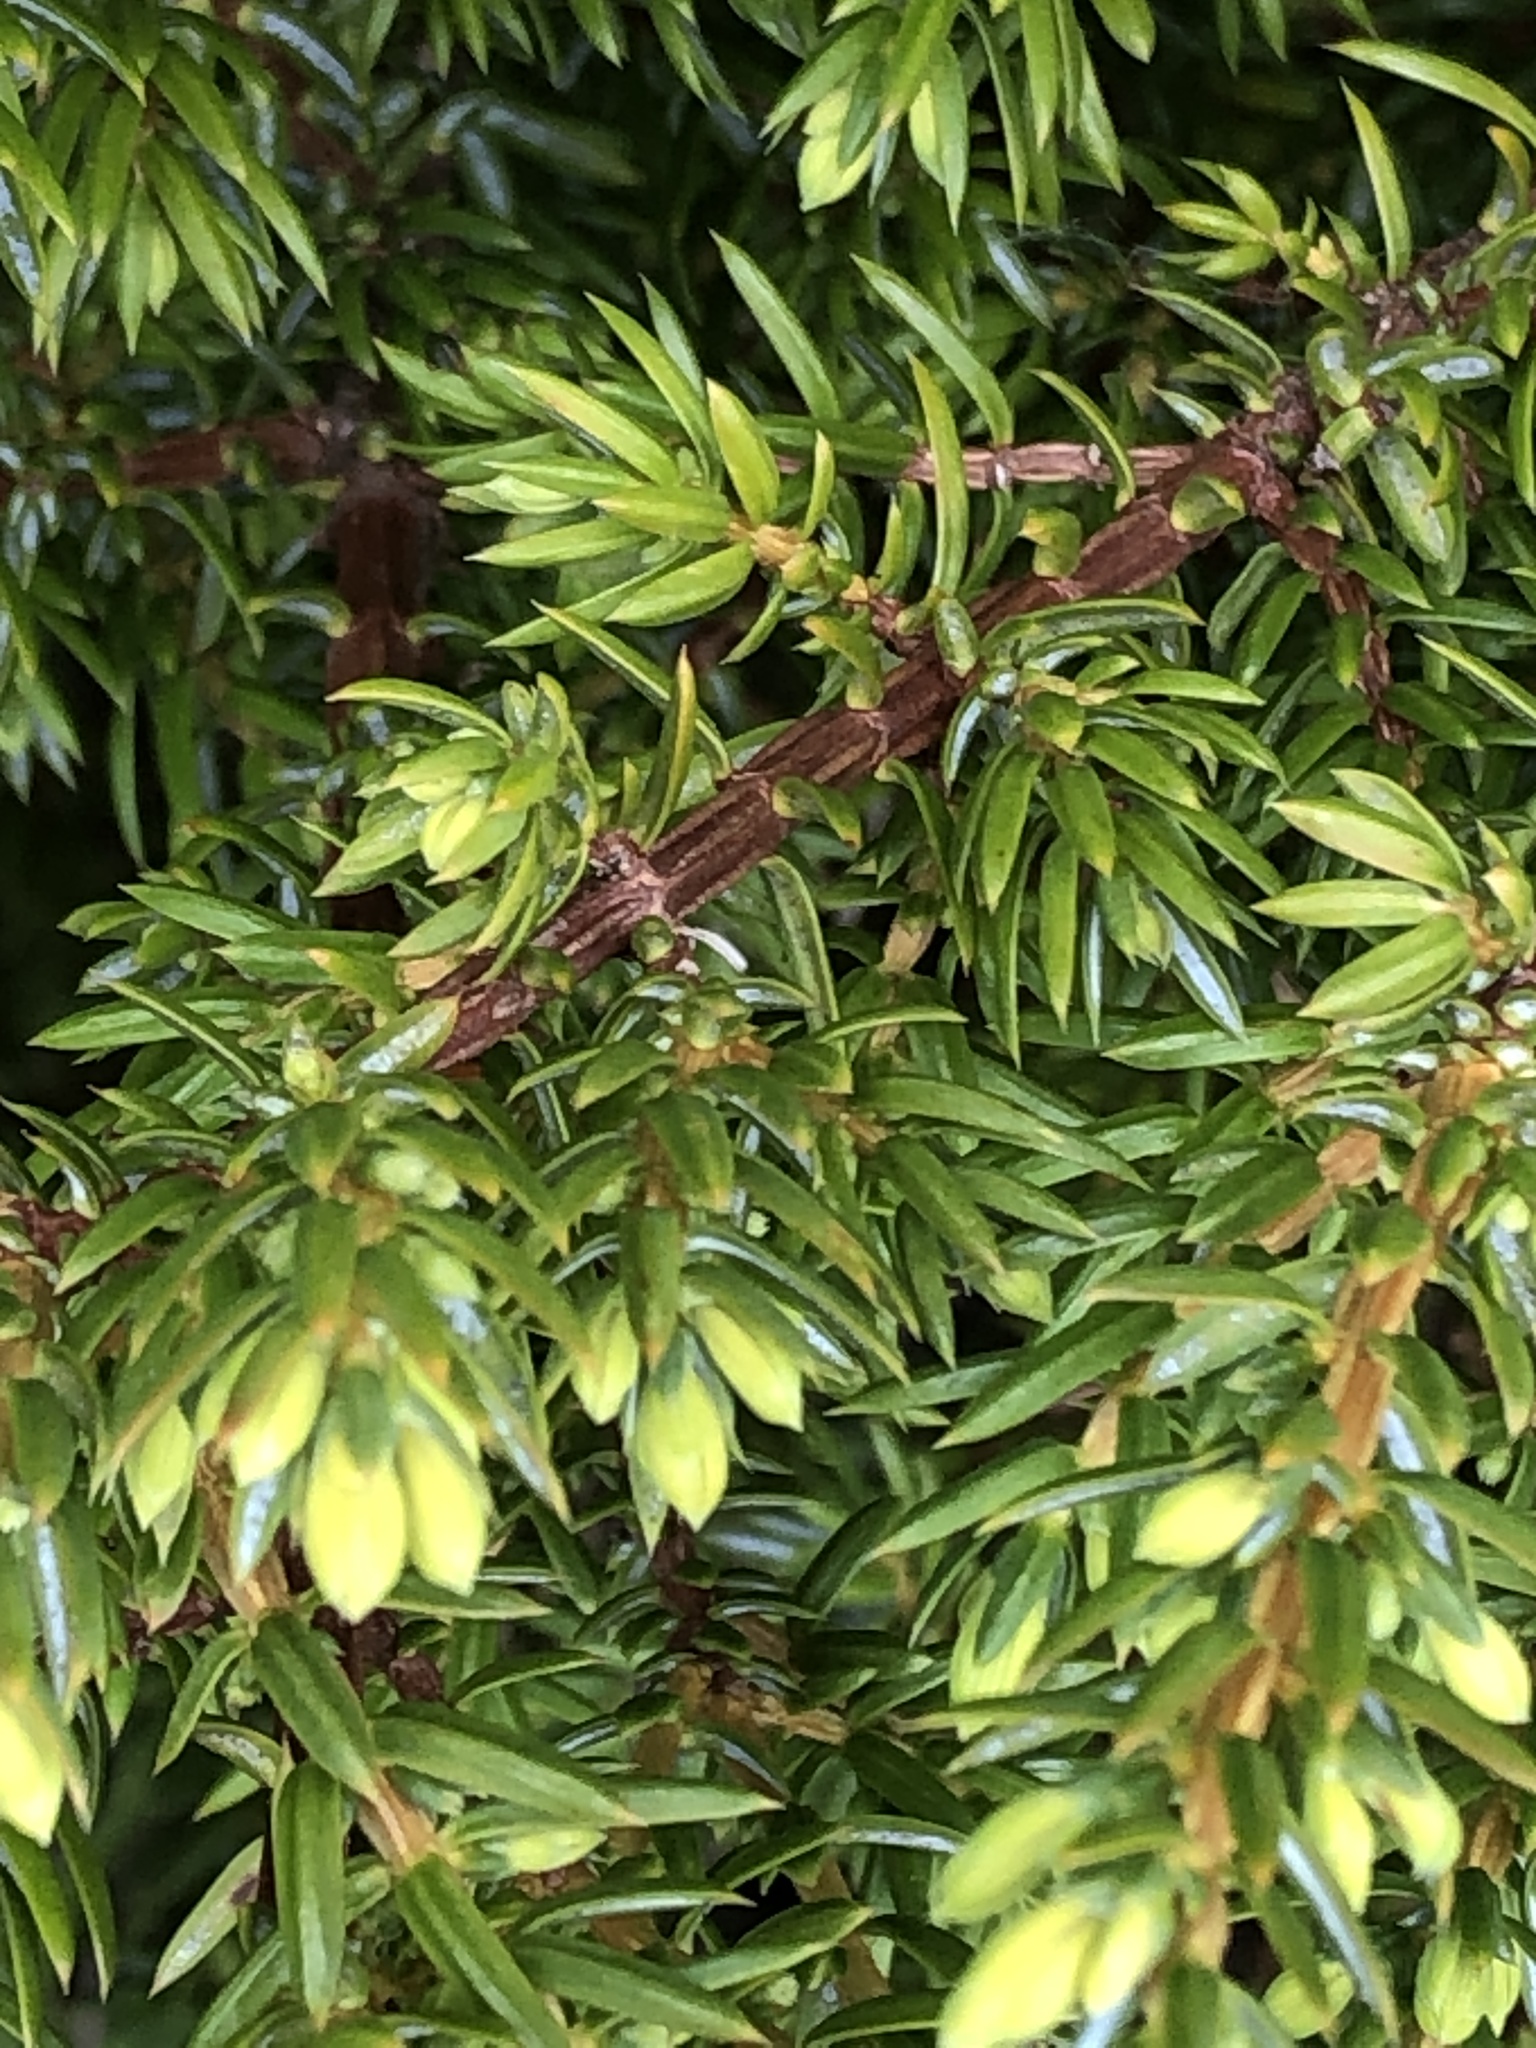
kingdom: Plantae
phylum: Tracheophyta
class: Pinopsida
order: Pinales
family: Cupressaceae
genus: Juniperus
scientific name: Juniperus communis
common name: Common juniper
